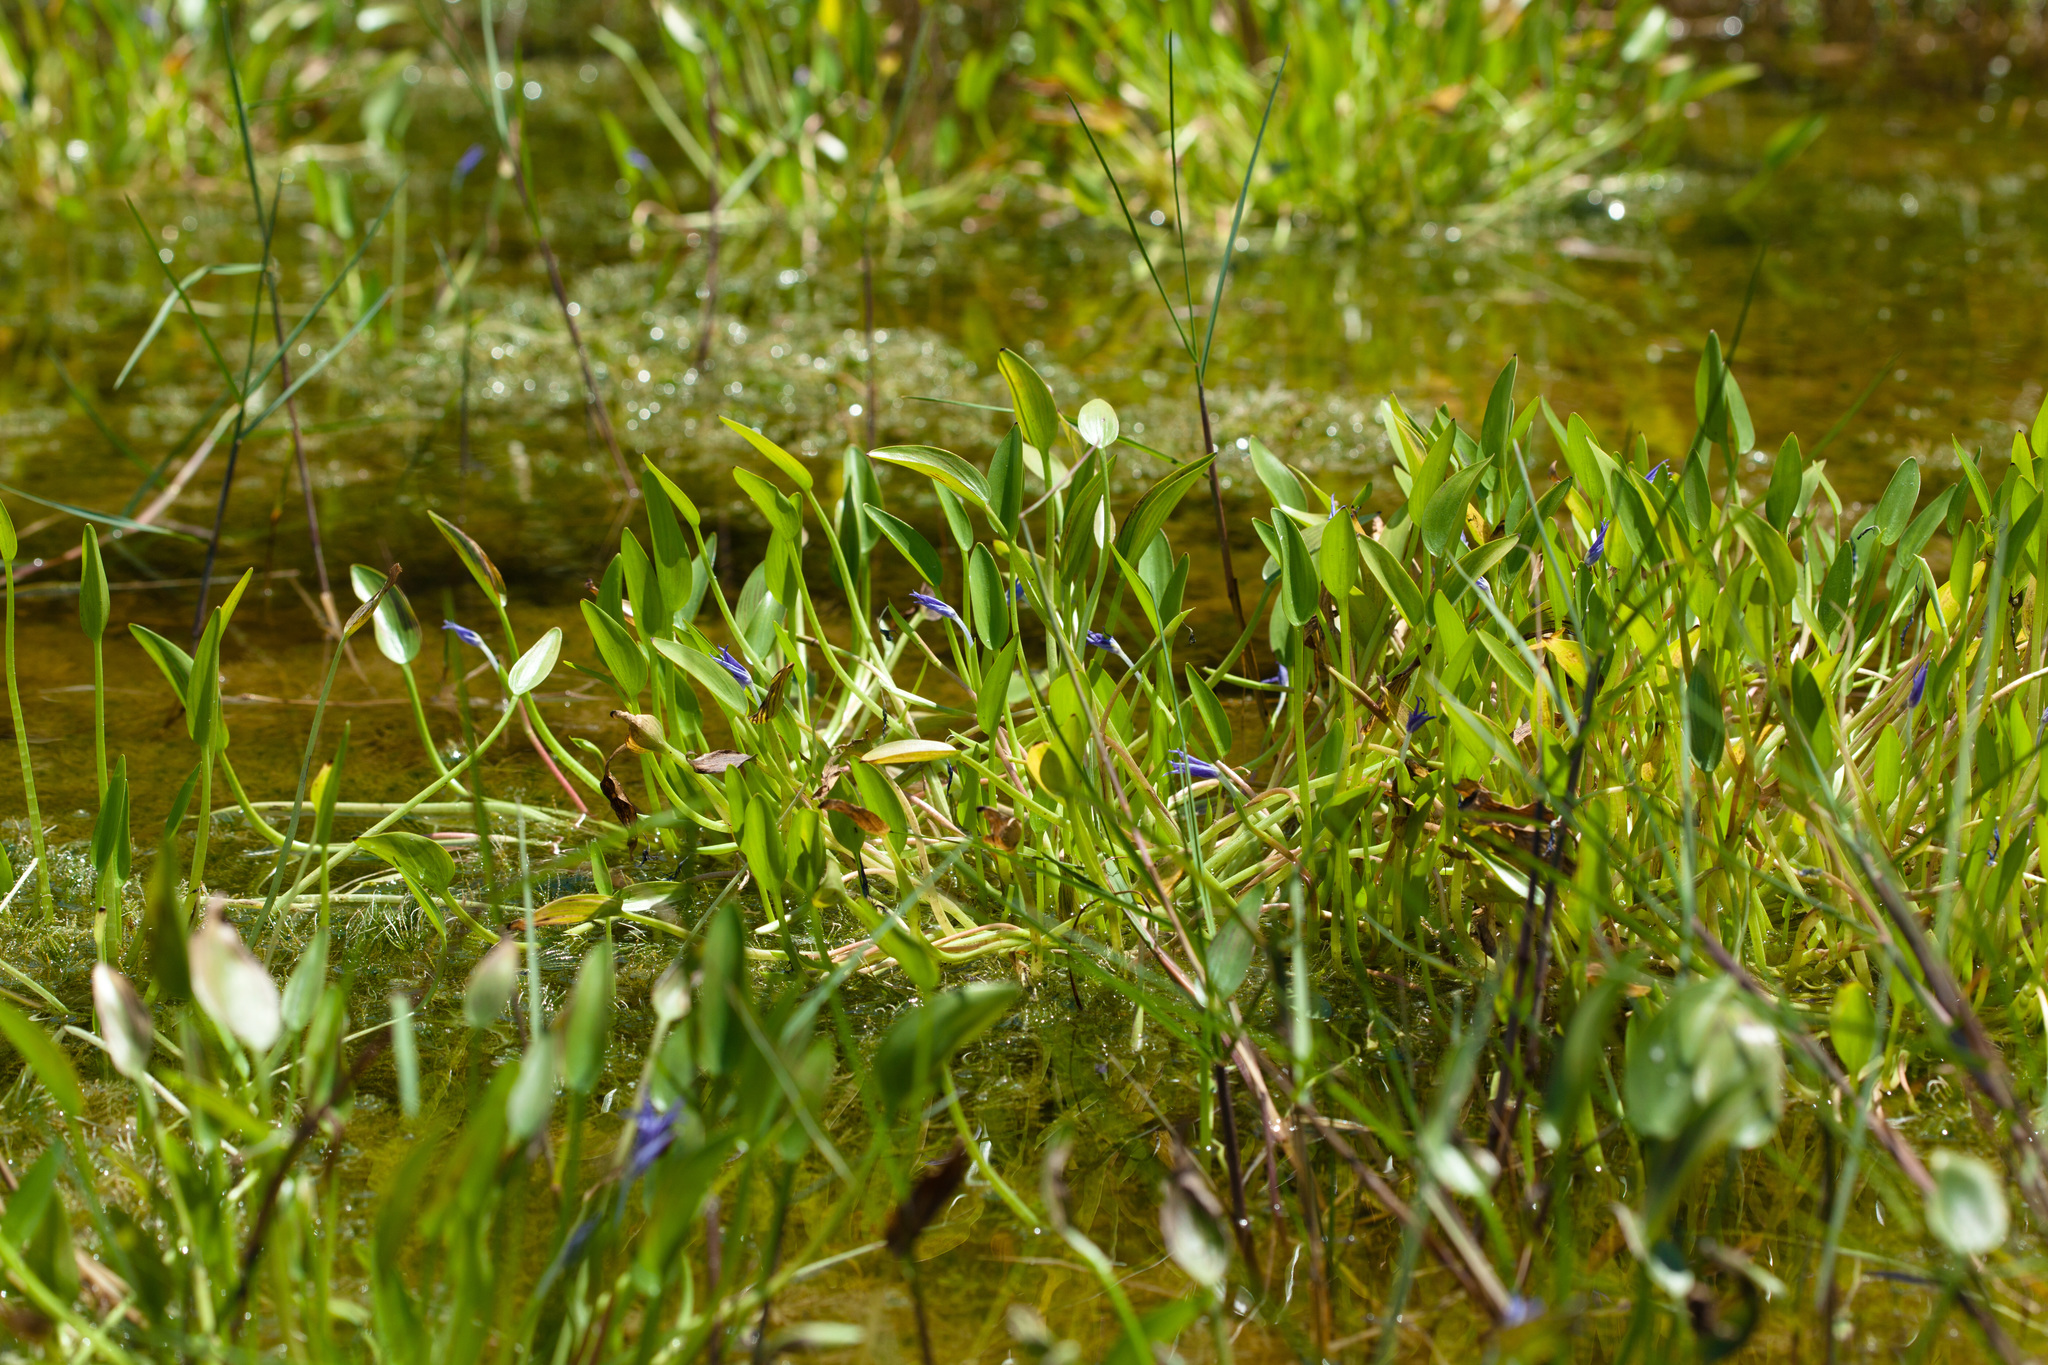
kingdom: Plantae
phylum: Tracheophyta
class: Liliopsida
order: Commelinales
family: Pontederiaceae
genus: Heteranthera
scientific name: Heteranthera limosa
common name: Blue mud-plantain
